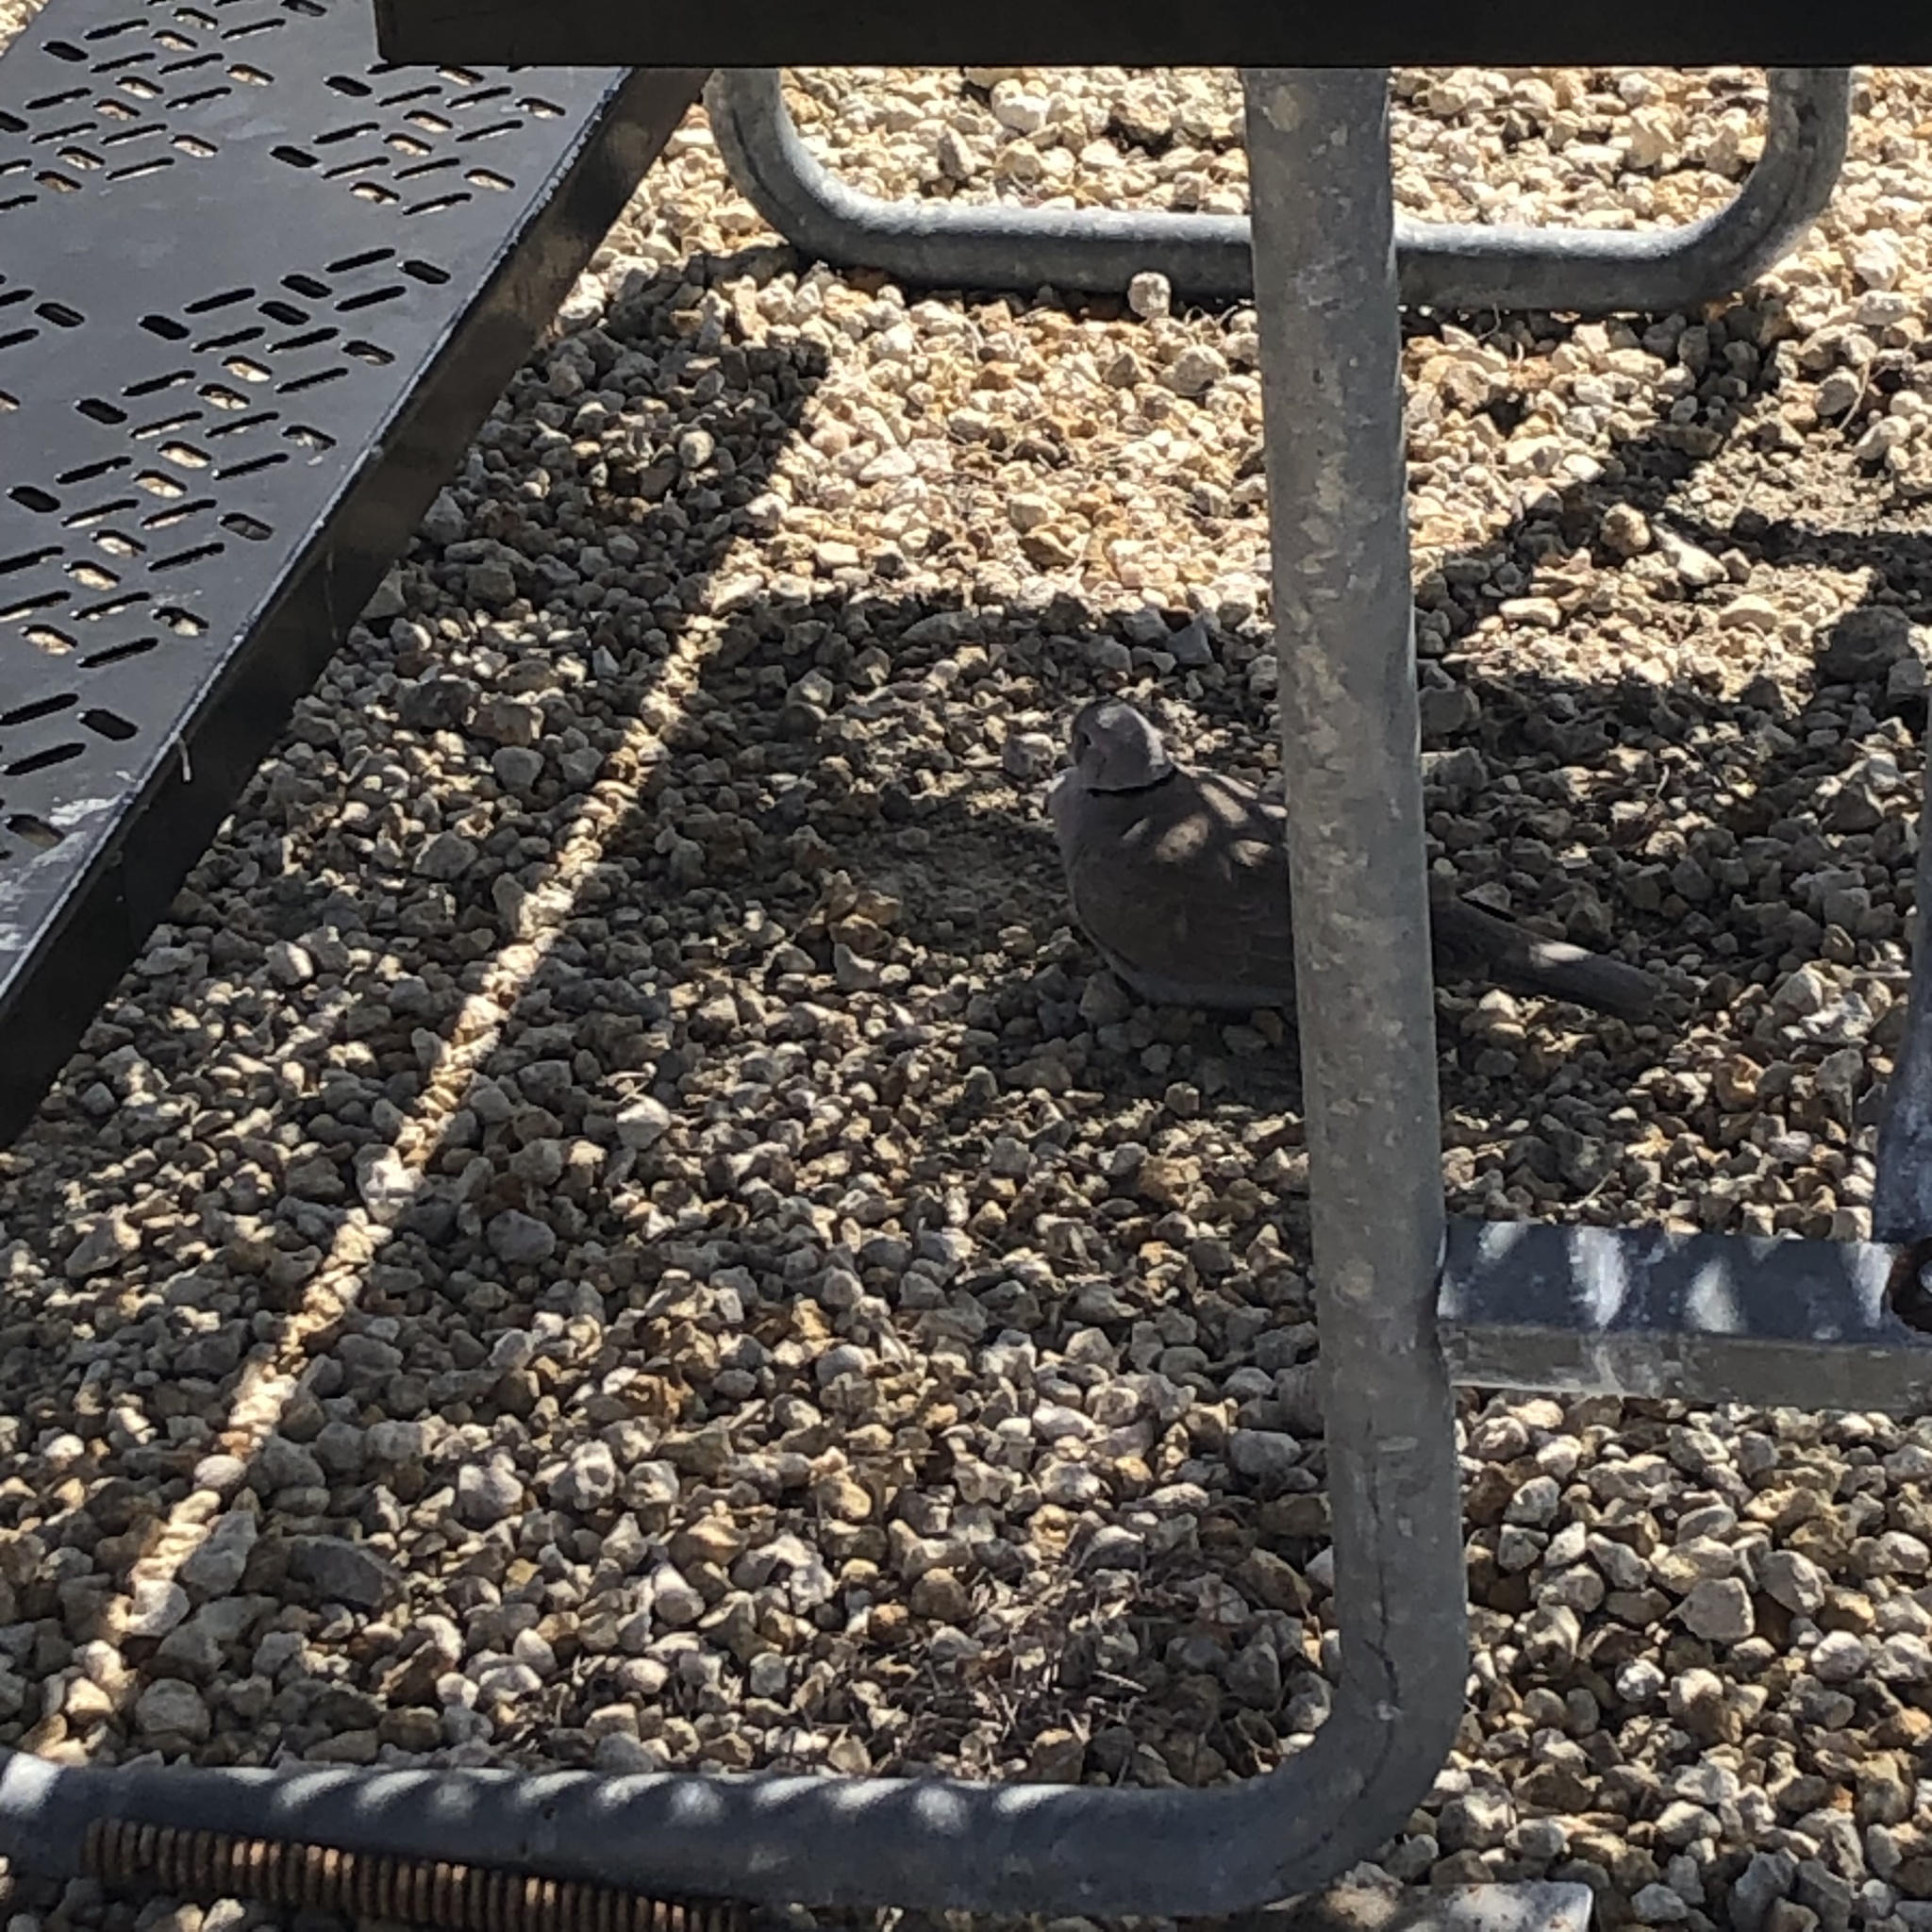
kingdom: Animalia
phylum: Chordata
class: Aves
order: Columbiformes
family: Columbidae
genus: Streptopelia
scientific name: Streptopelia decaocto
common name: Eurasian collared dove
